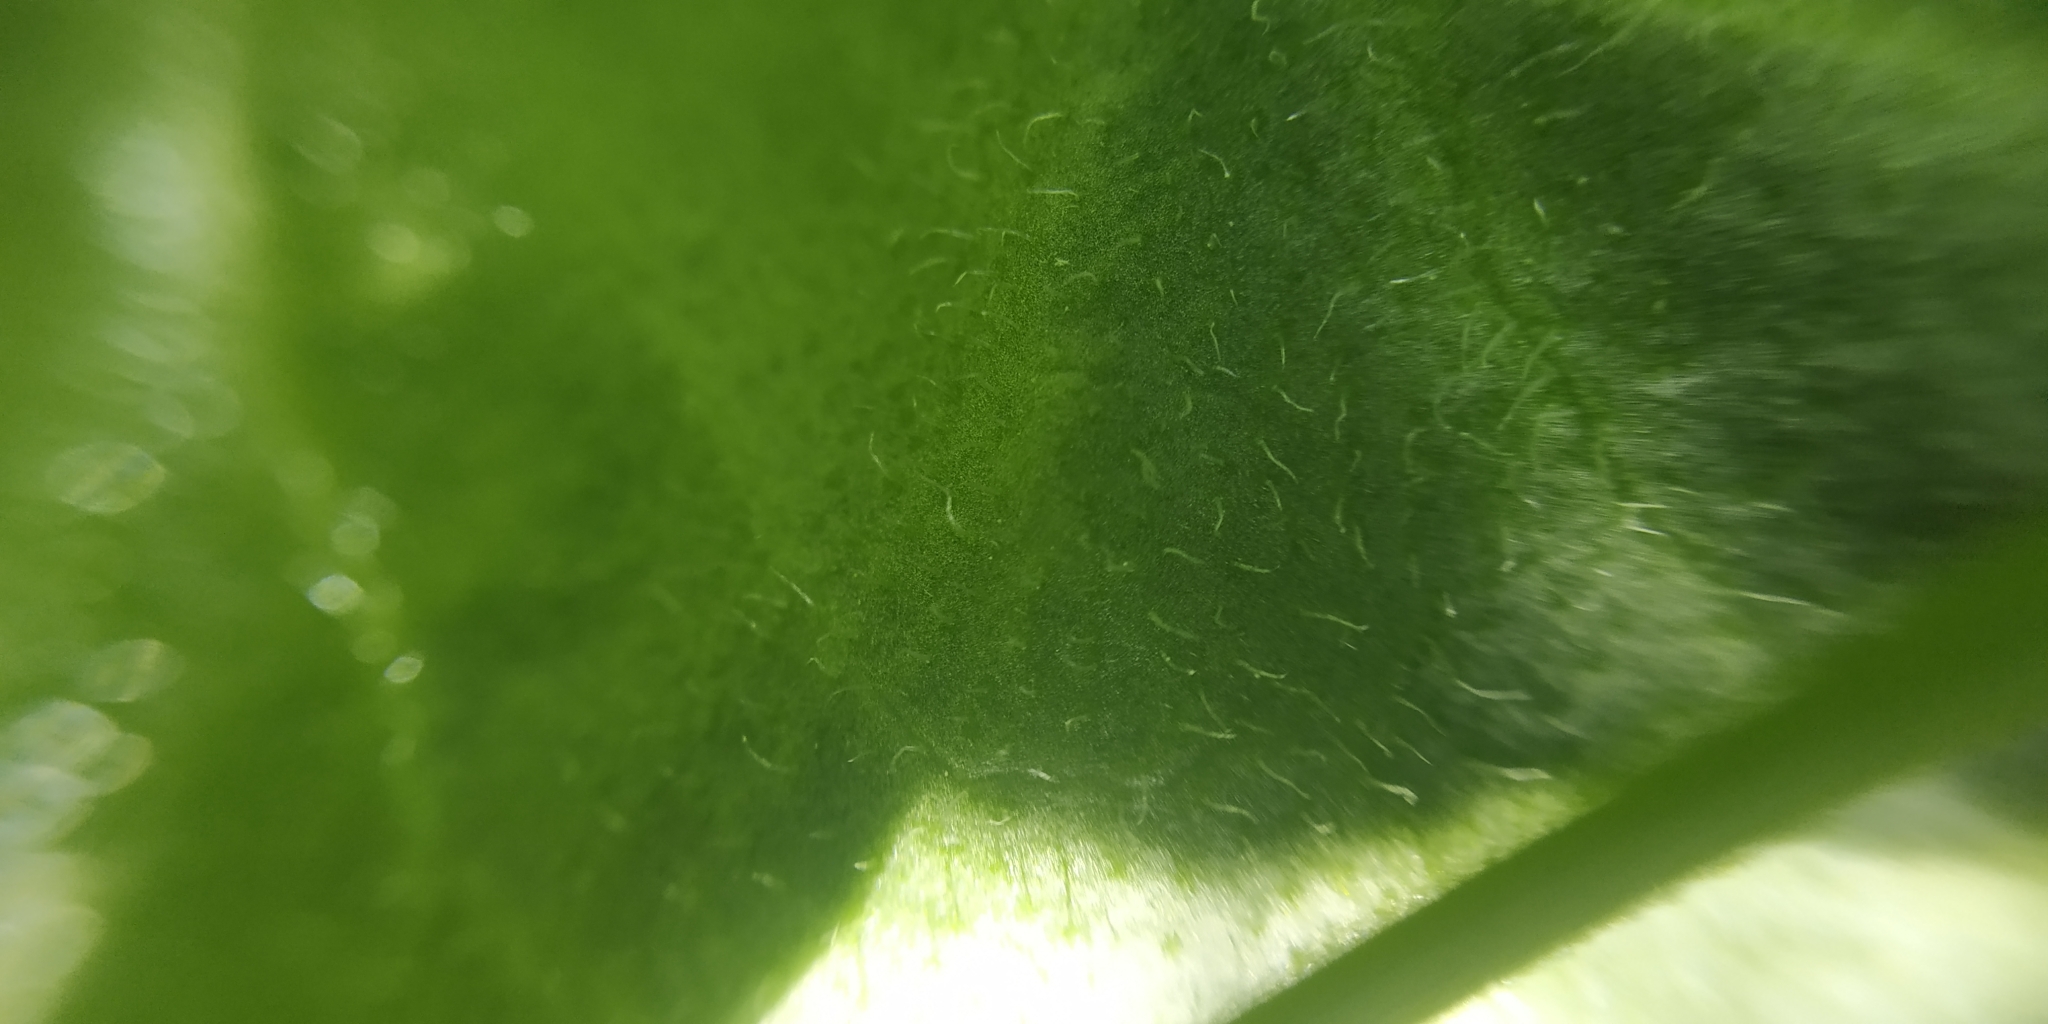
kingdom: Plantae
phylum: Tracheophyta
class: Magnoliopsida
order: Asterales
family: Asteraceae
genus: Trommsdorffia
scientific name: Trommsdorffia maculata
